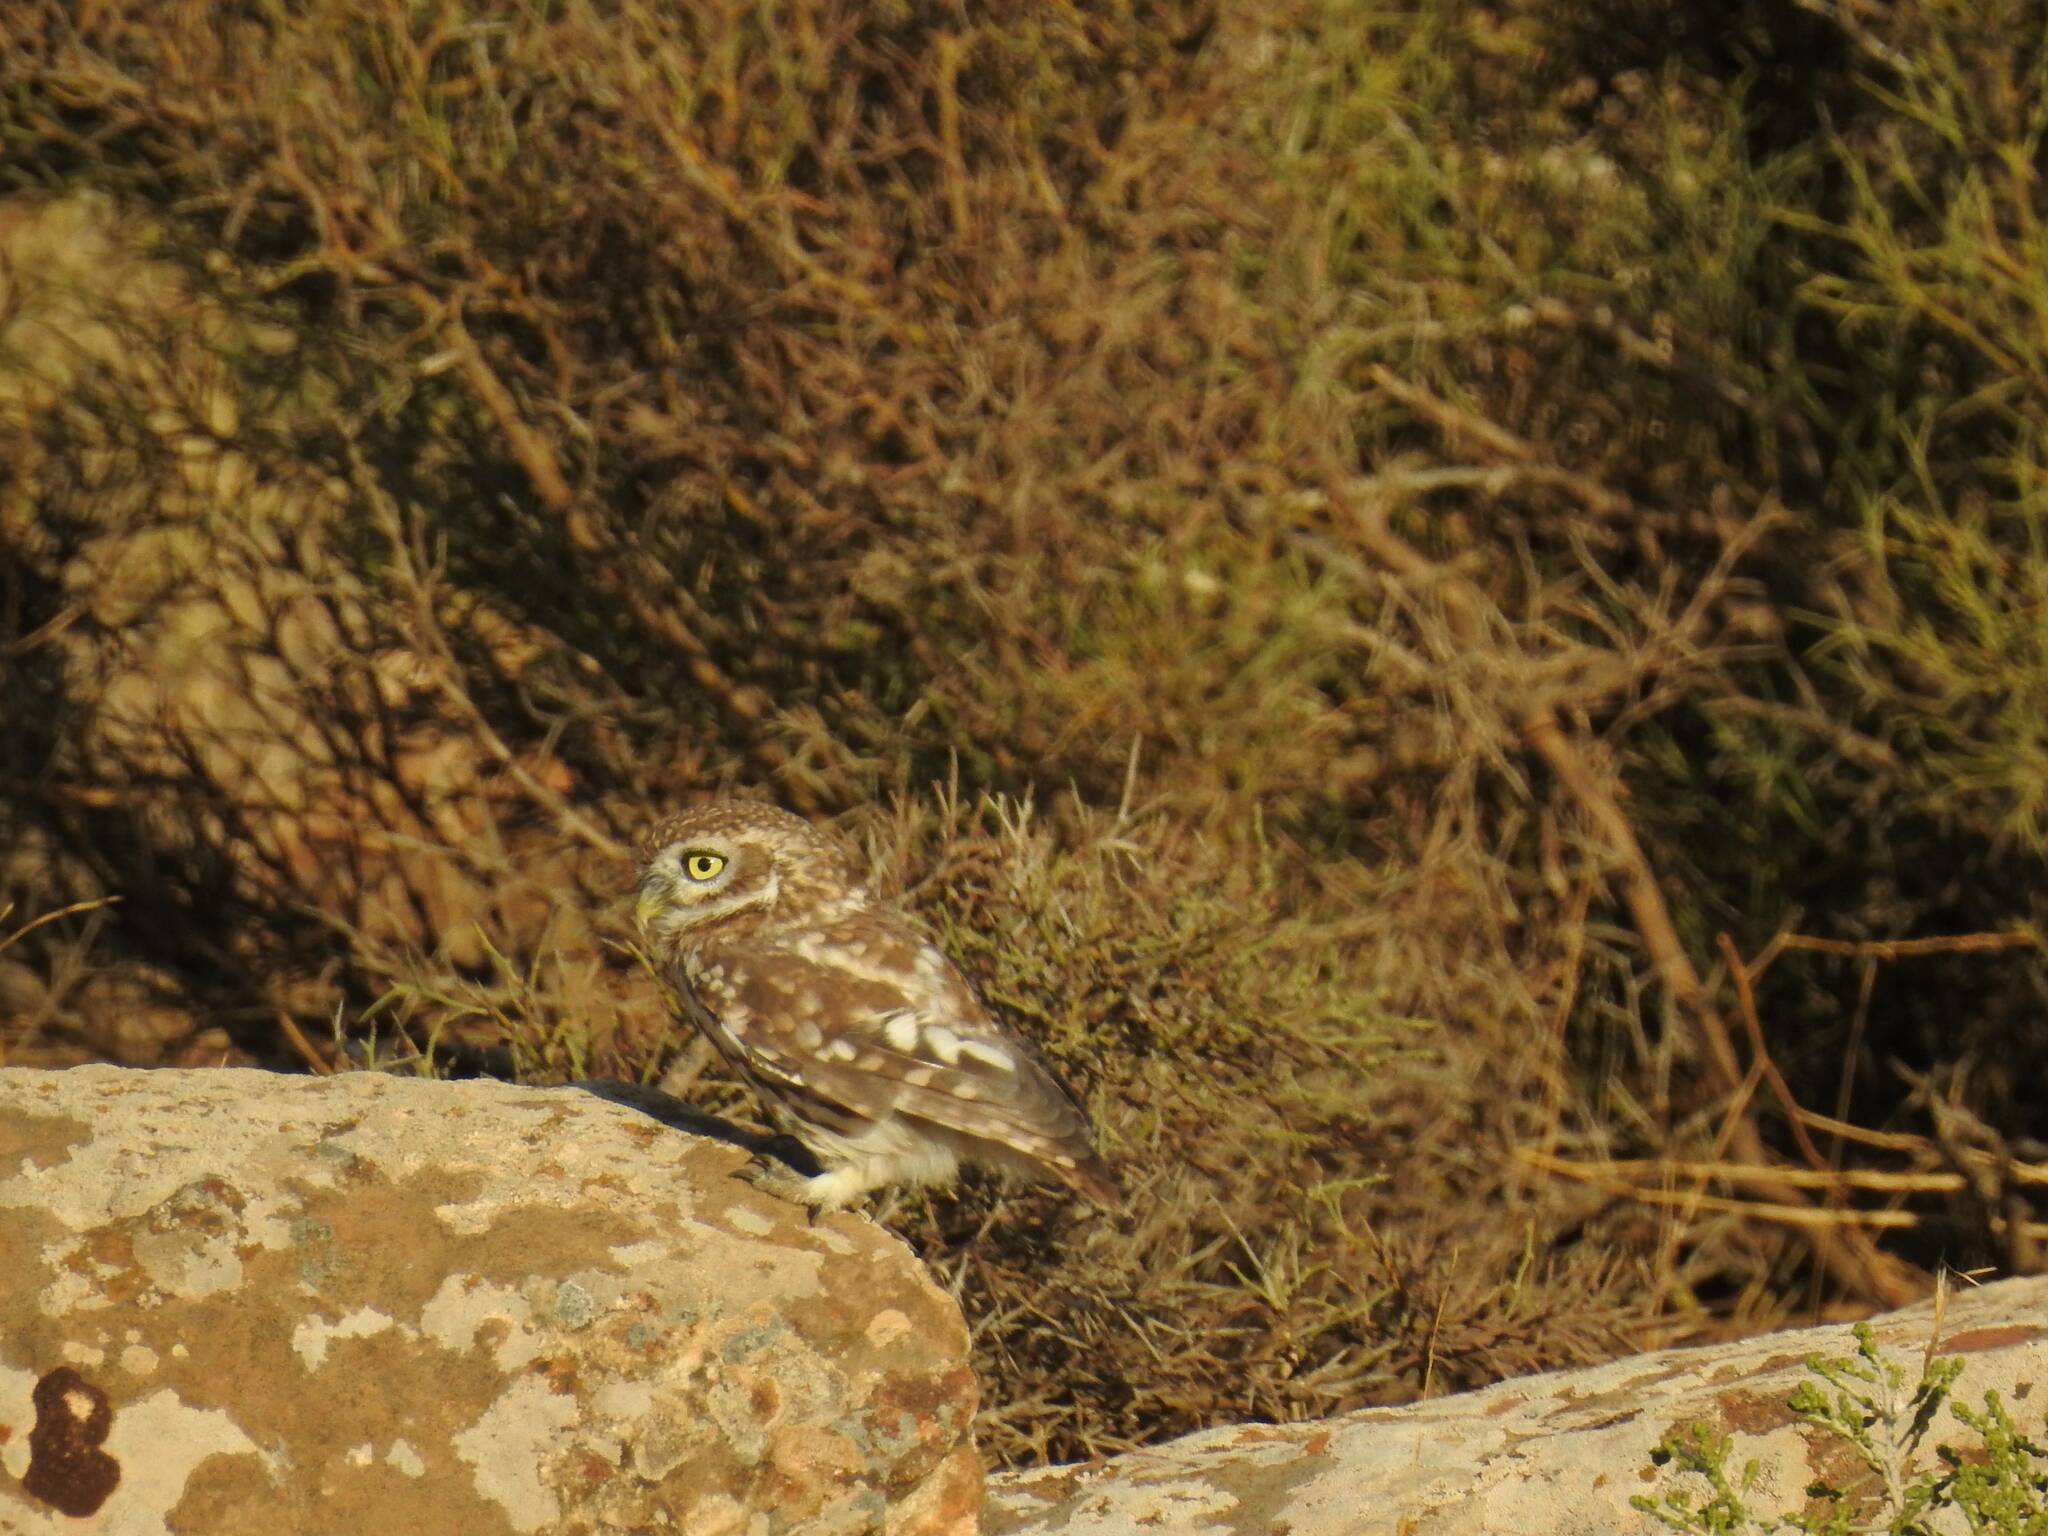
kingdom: Animalia
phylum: Chordata
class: Aves
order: Strigiformes
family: Strigidae
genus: Athene
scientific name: Athene noctua
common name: Little owl
